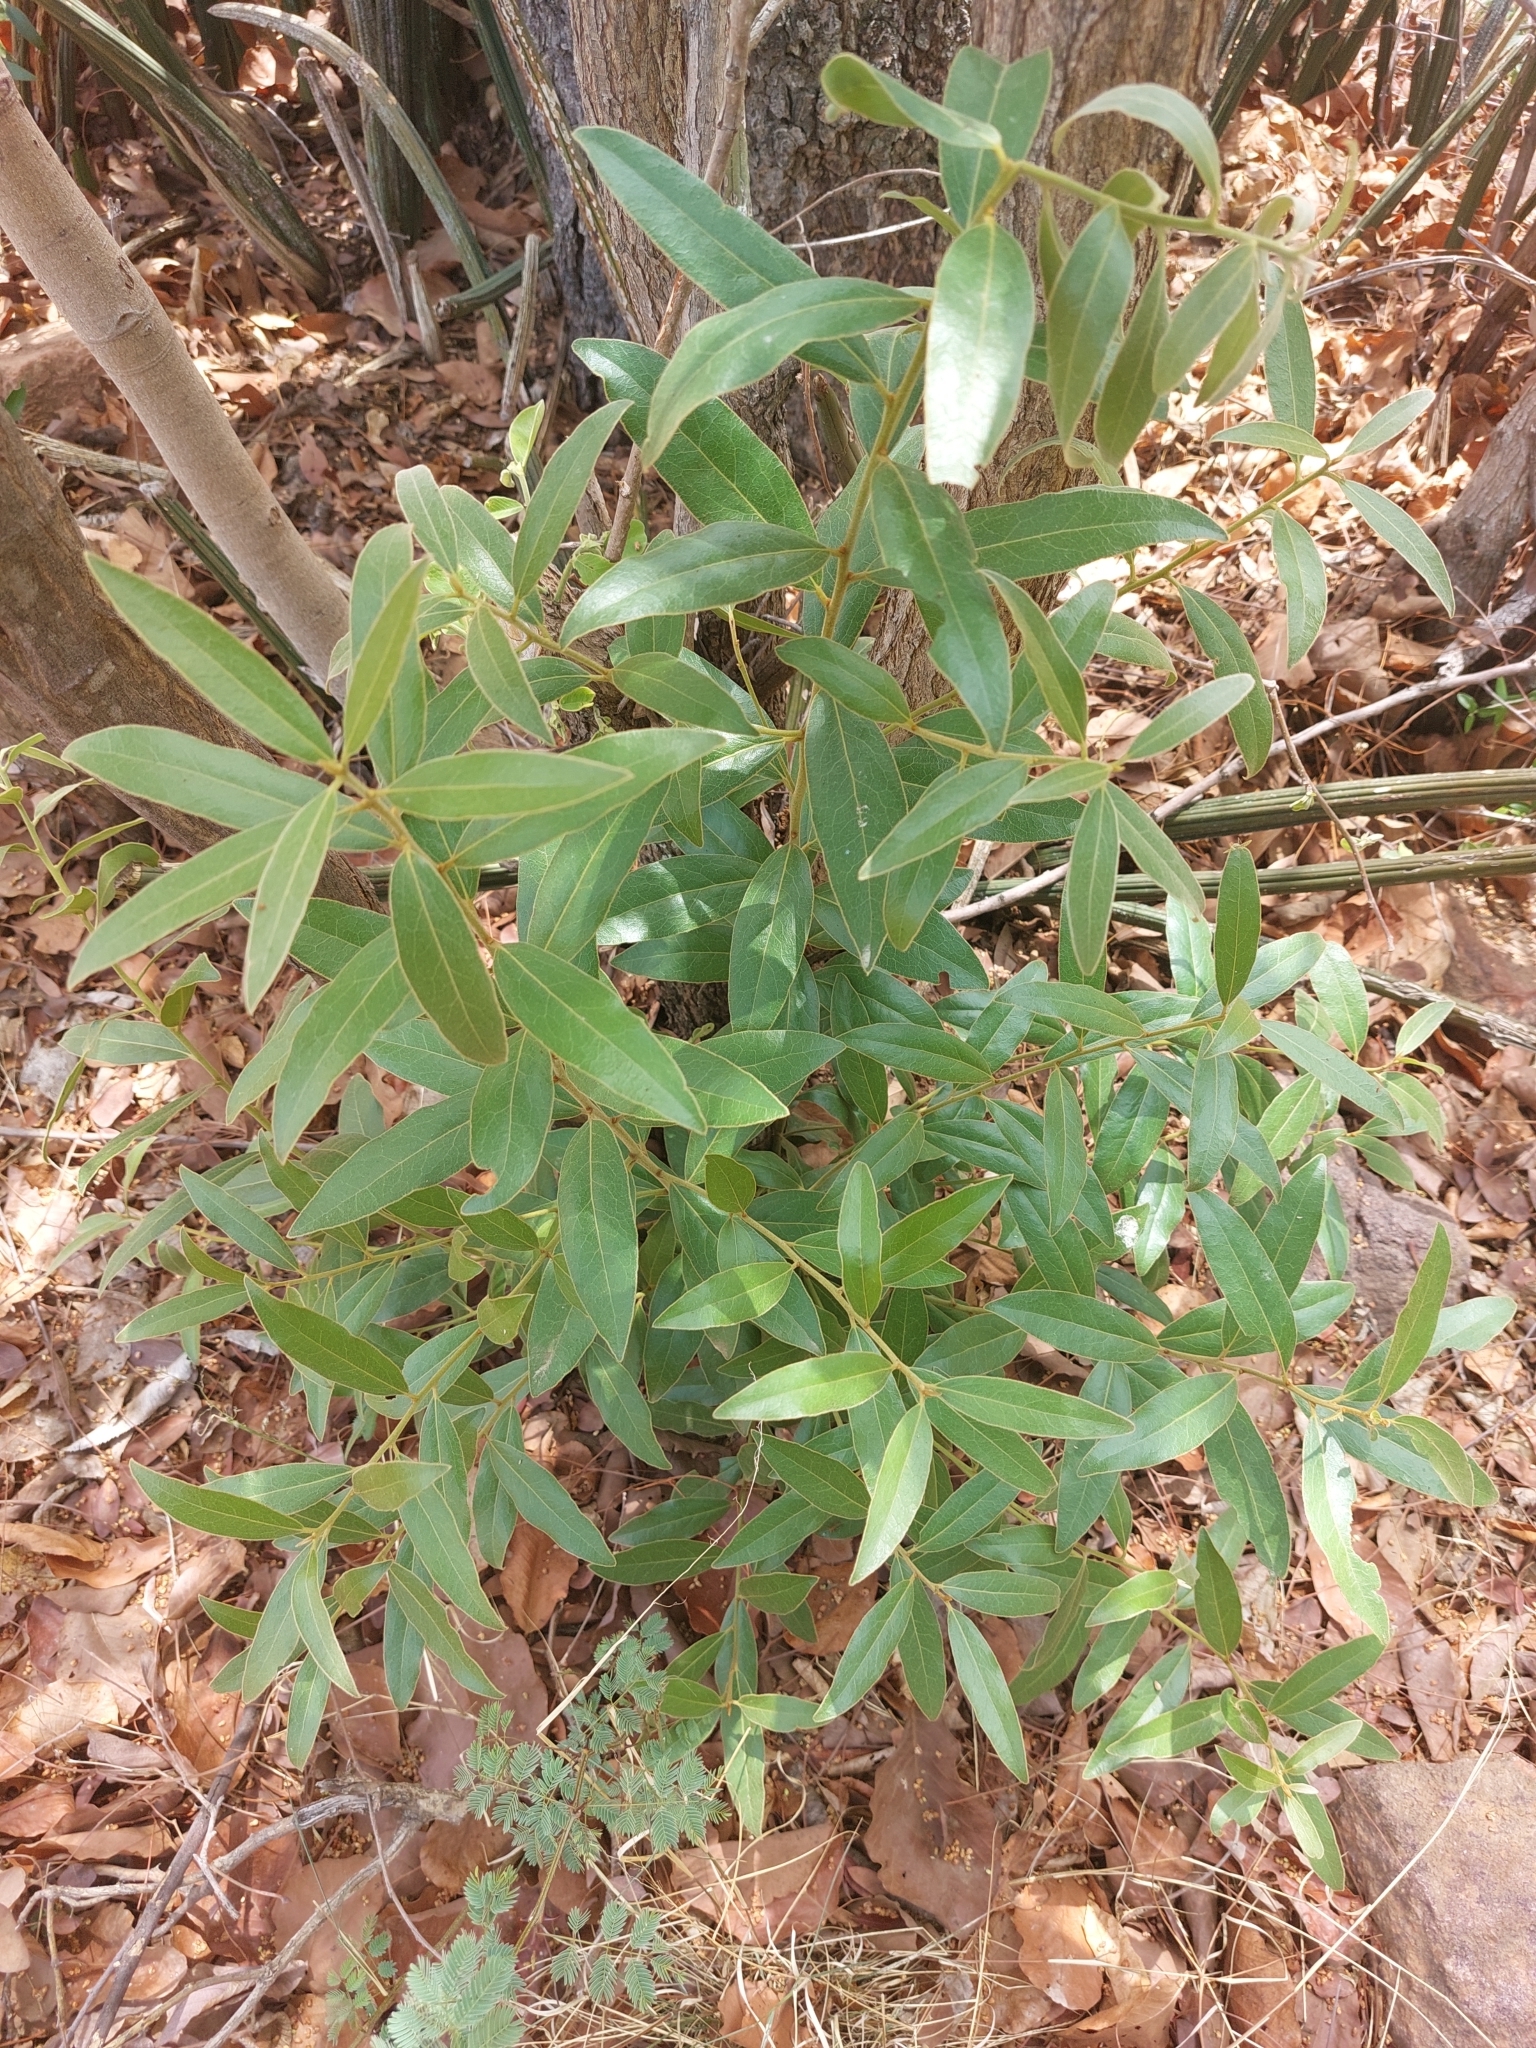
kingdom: Plantae
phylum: Tracheophyta
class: Magnoliopsida
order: Ericales
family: Ebenaceae
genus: Euclea
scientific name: Euclea natalensis
